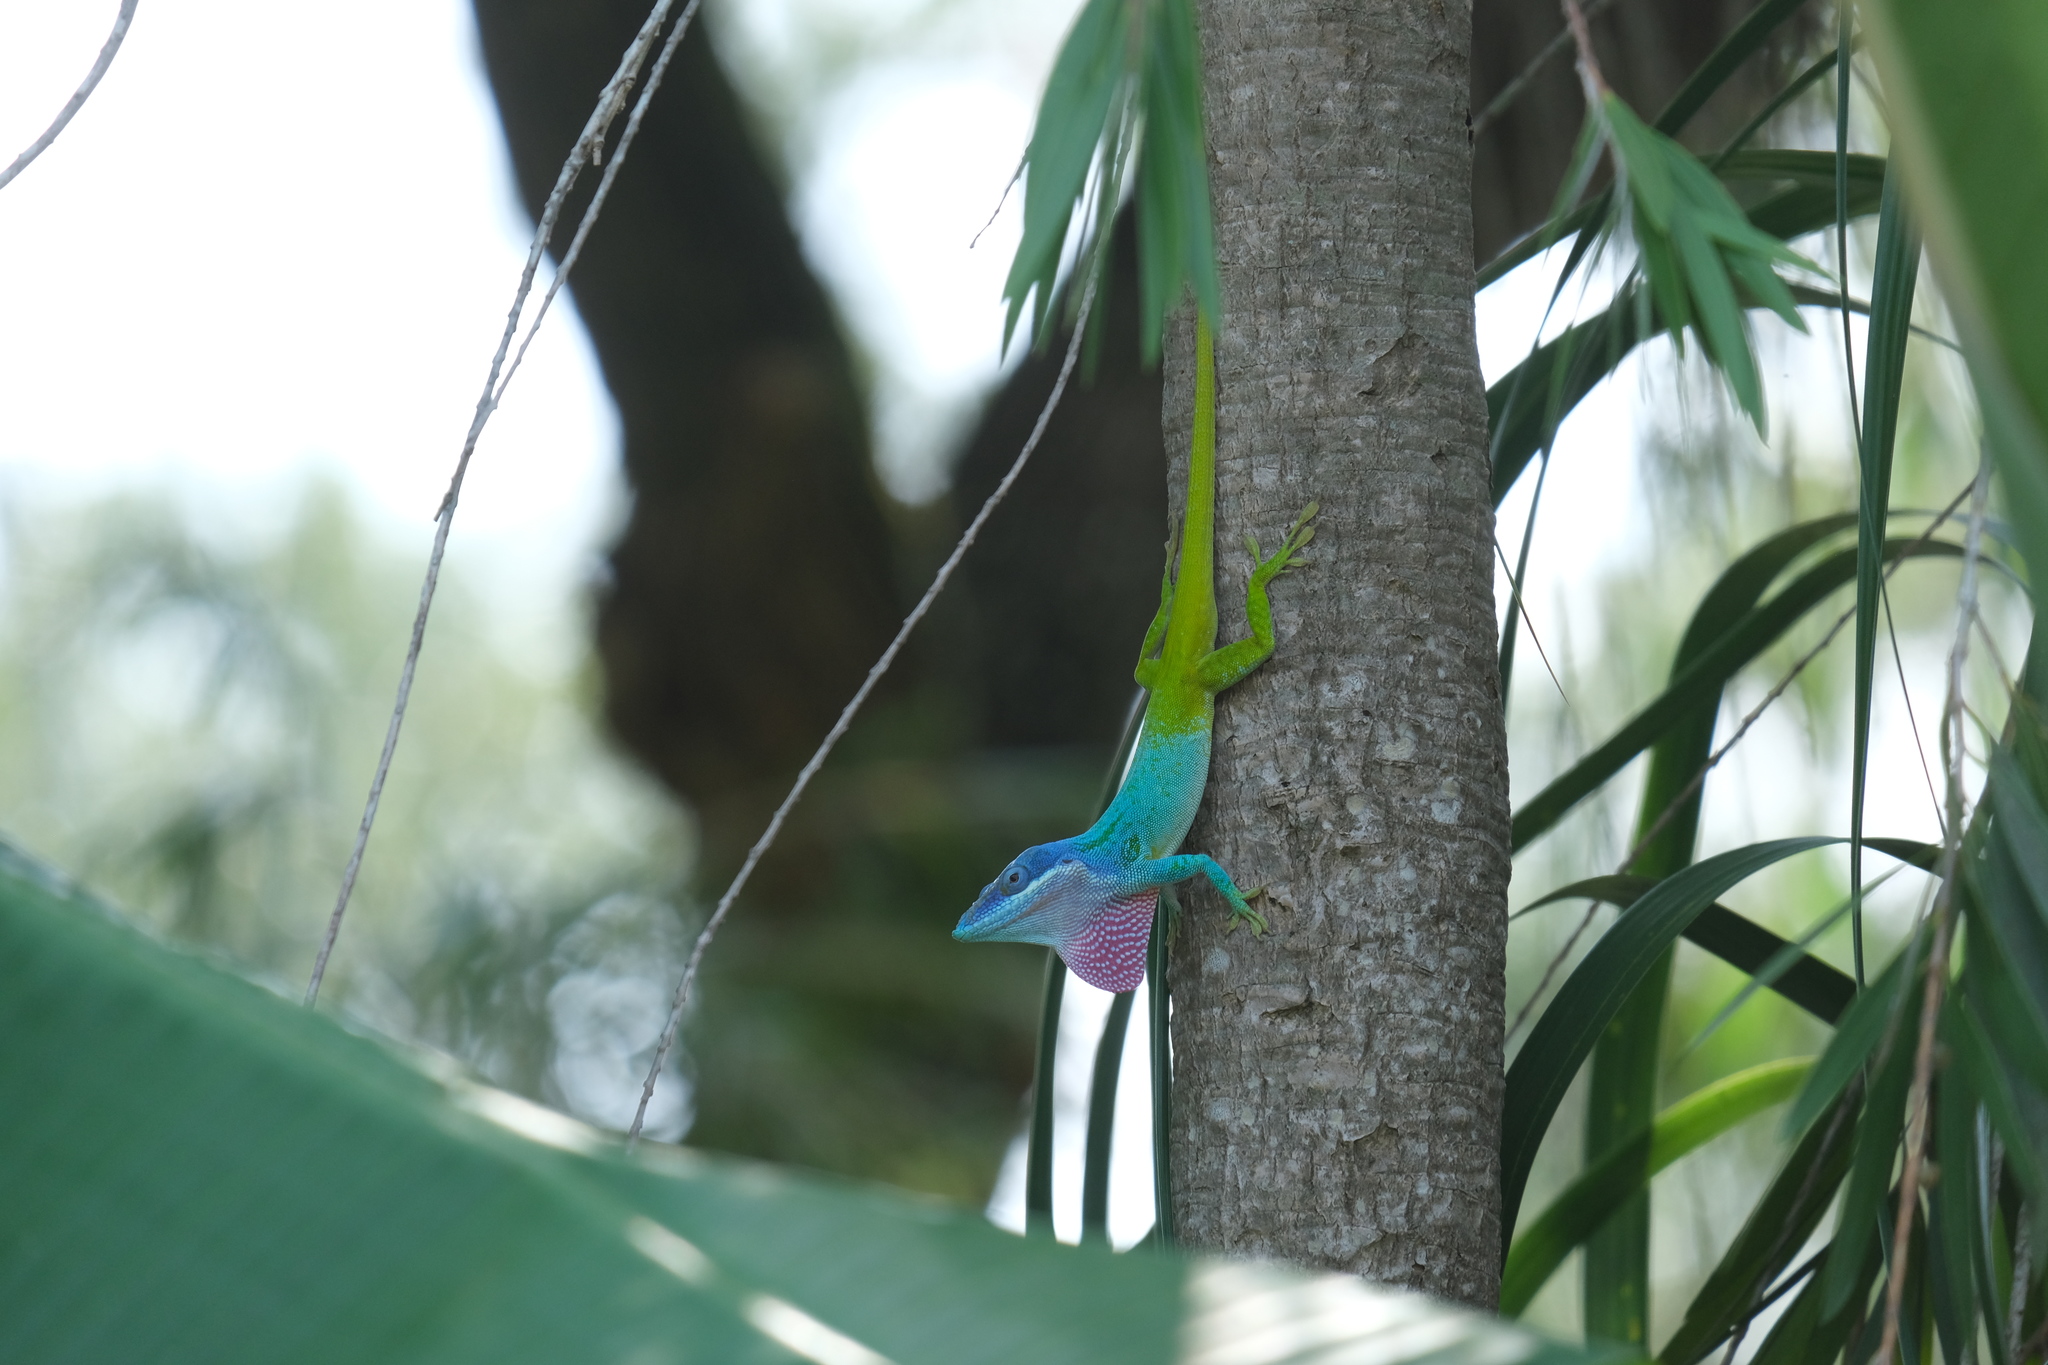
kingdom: Animalia
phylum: Chordata
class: Squamata
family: Dactyloidae
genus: Anolis
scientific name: Anolis allisoni
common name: Allison's anole
